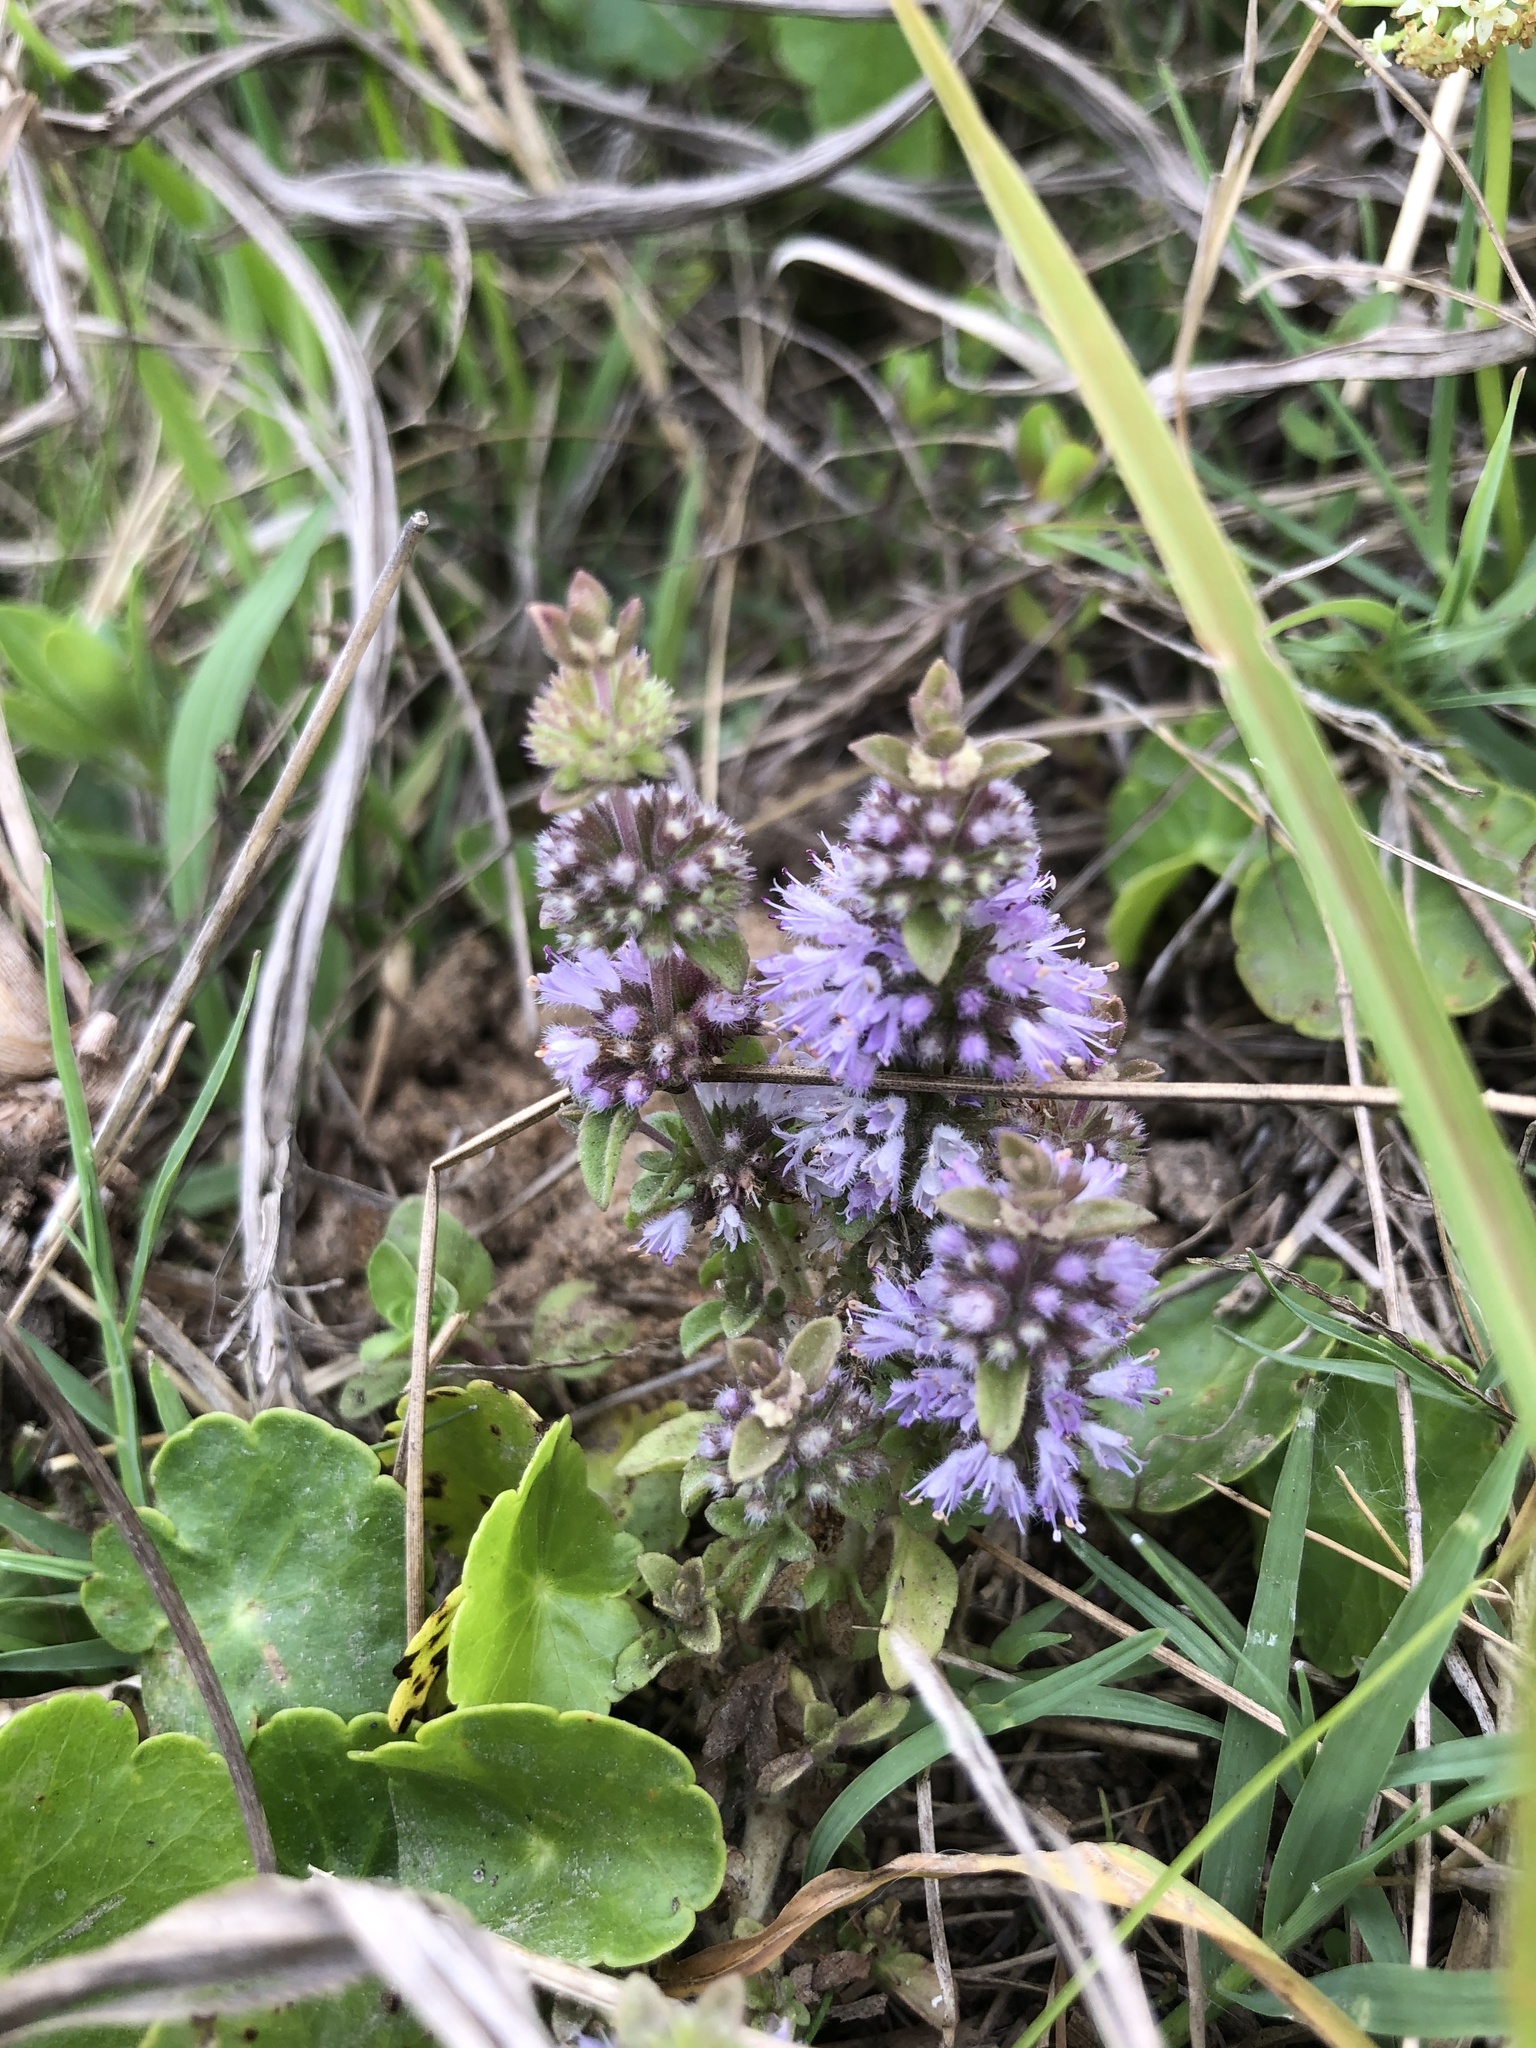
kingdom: Plantae
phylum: Tracheophyta
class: Magnoliopsida
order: Lamiales
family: Lamiaceae
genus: Mentha
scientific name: Mentha pulegium
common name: Pennyroyal
